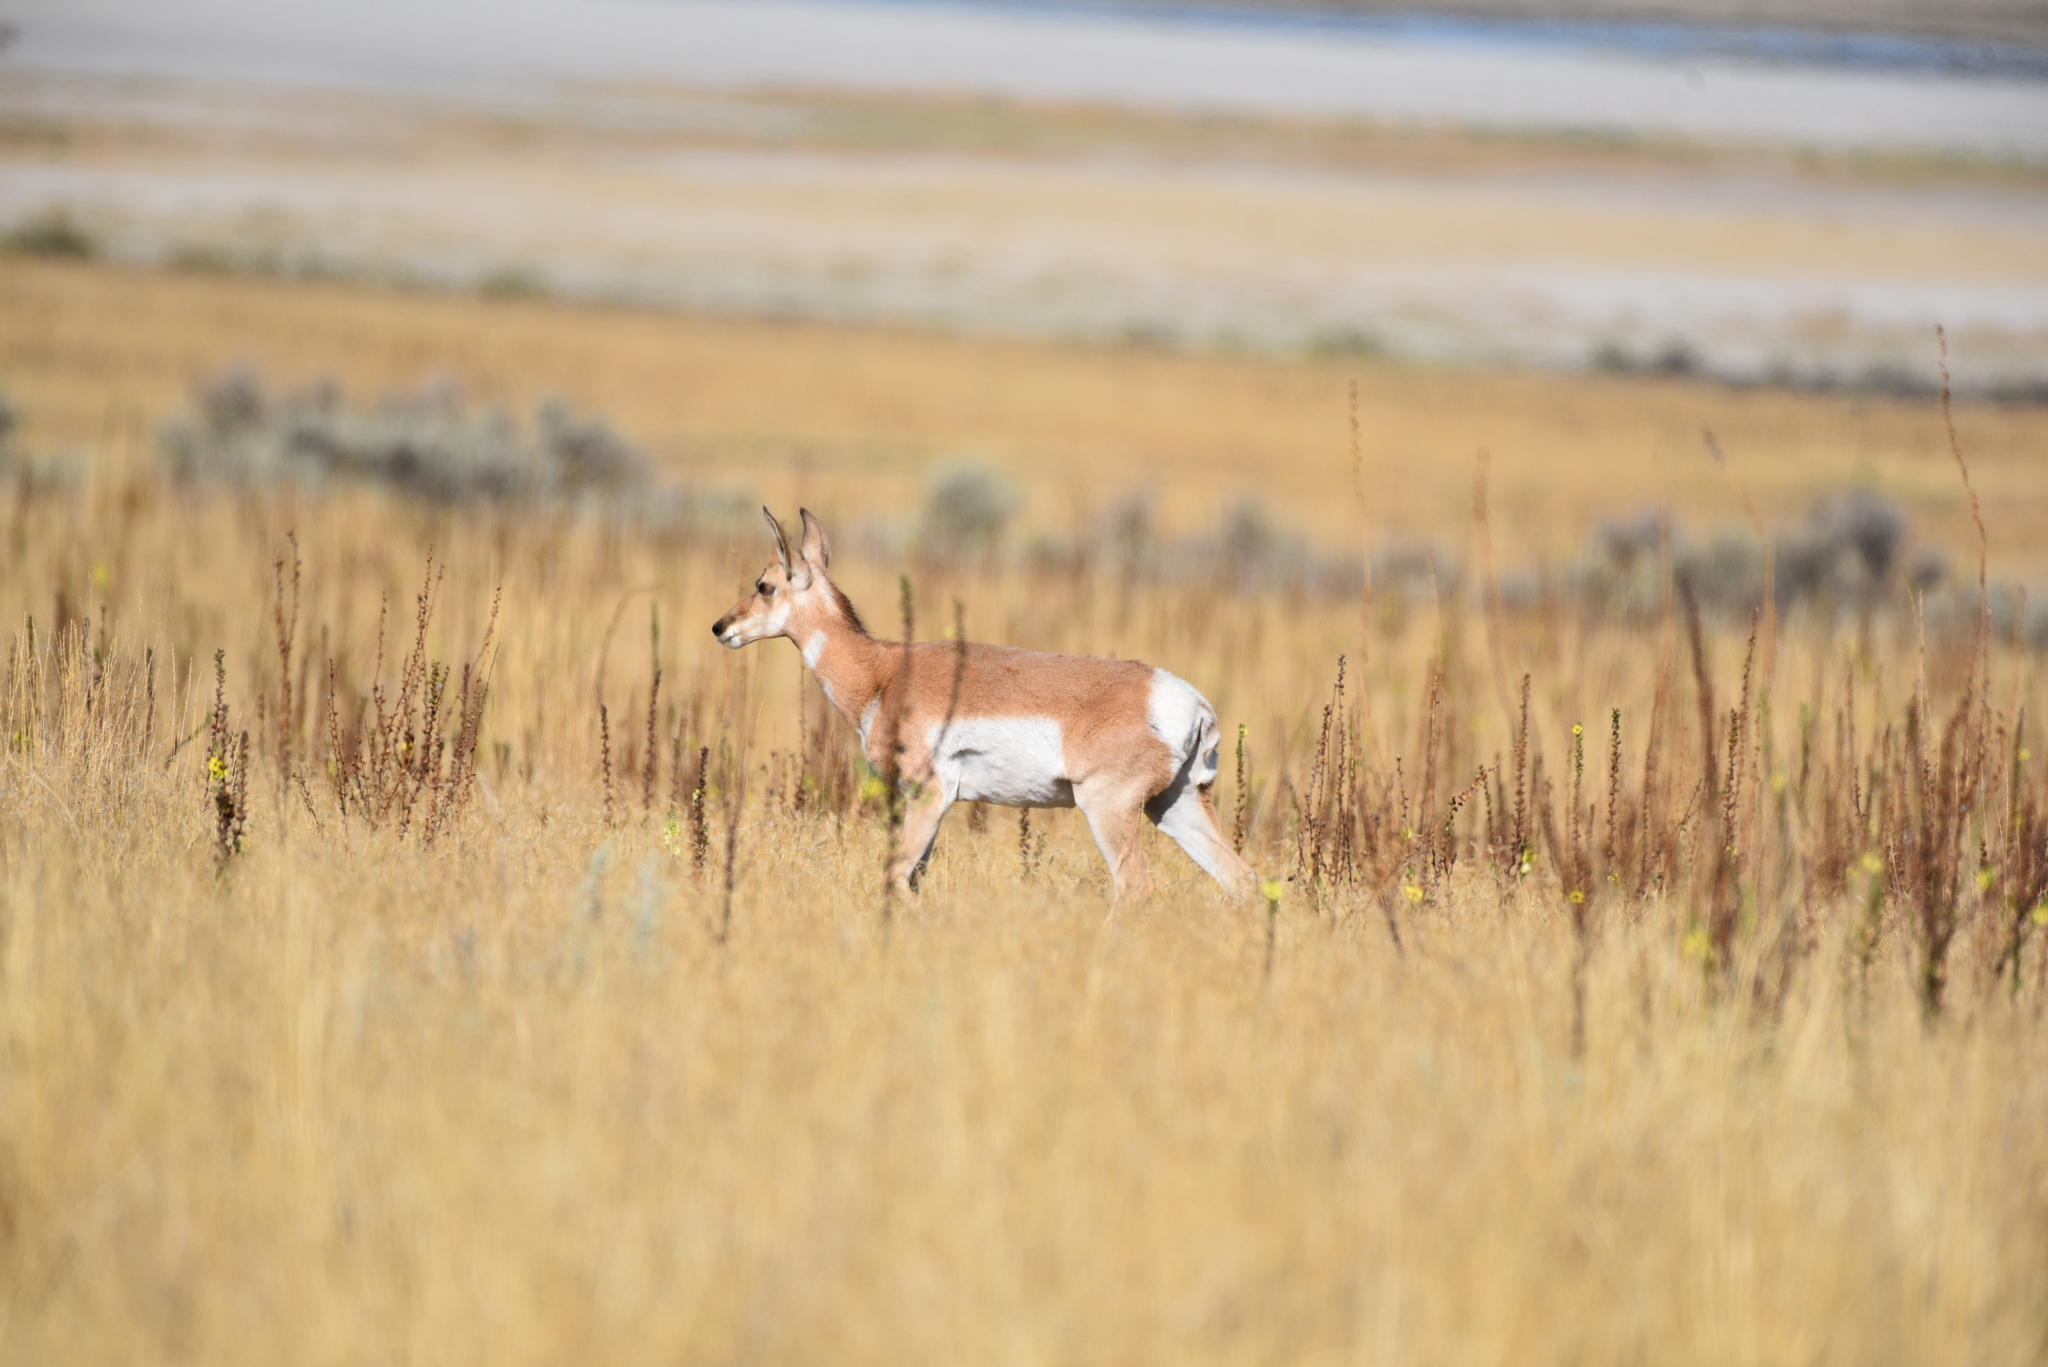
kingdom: Animalia
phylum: Chordata
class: Mammalia
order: Artiodactyla
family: Antilocapridae
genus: Antilocapra
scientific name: Antilocapra americana
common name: Pronghorn
